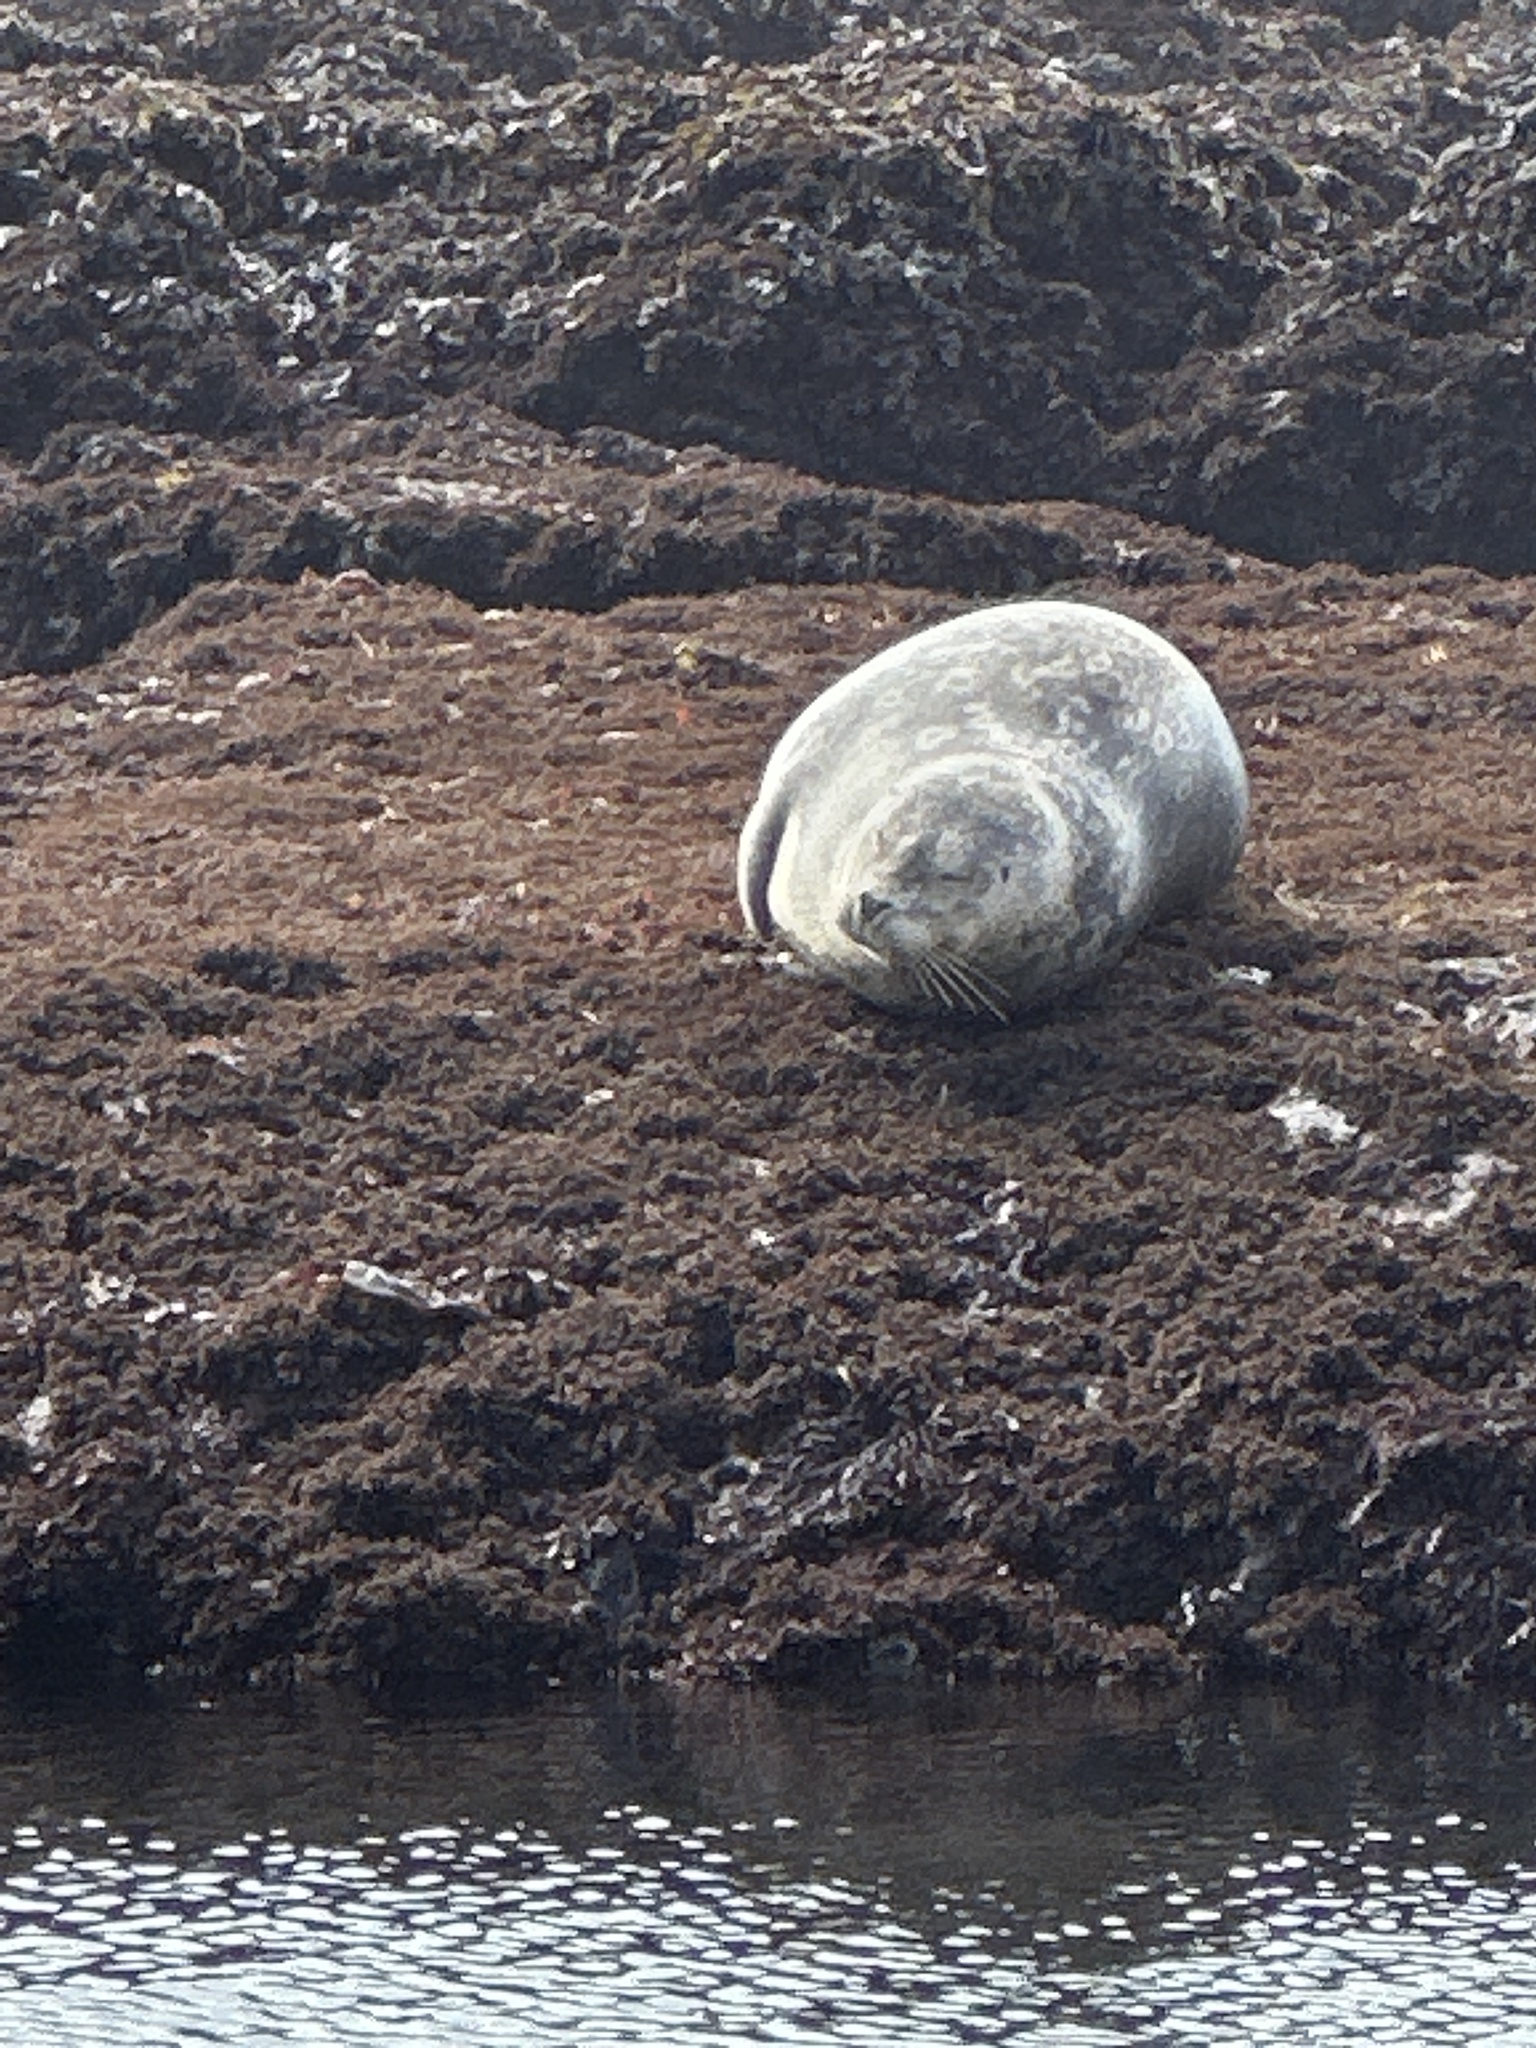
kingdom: Animalia
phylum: Chordata
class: Mammalia
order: Carnivora
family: Phocidae
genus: Phoca
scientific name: Phoca vitulina
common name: Harbor seal
